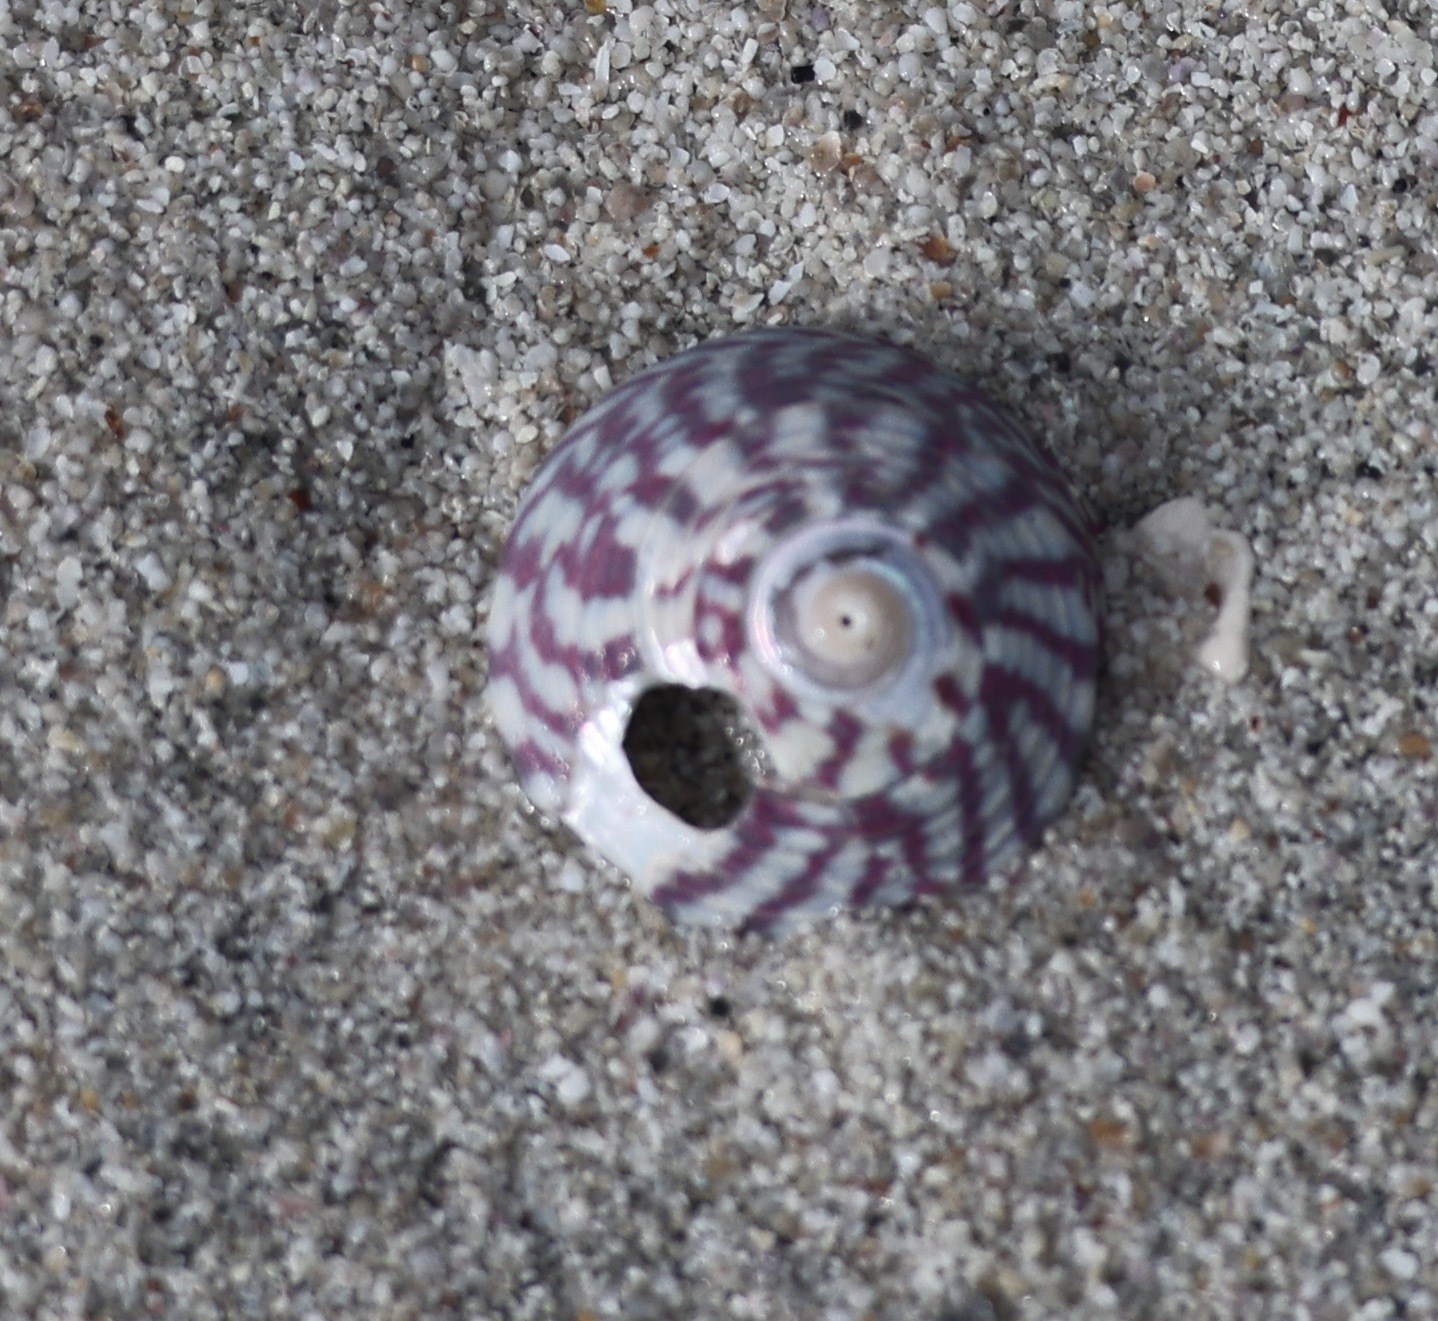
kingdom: Animalia
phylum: Mollusca
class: Gastropoda
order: Trochida
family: Trochidae
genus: Steromphala
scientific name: Steromphala umbilicalis
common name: Flat top shell
